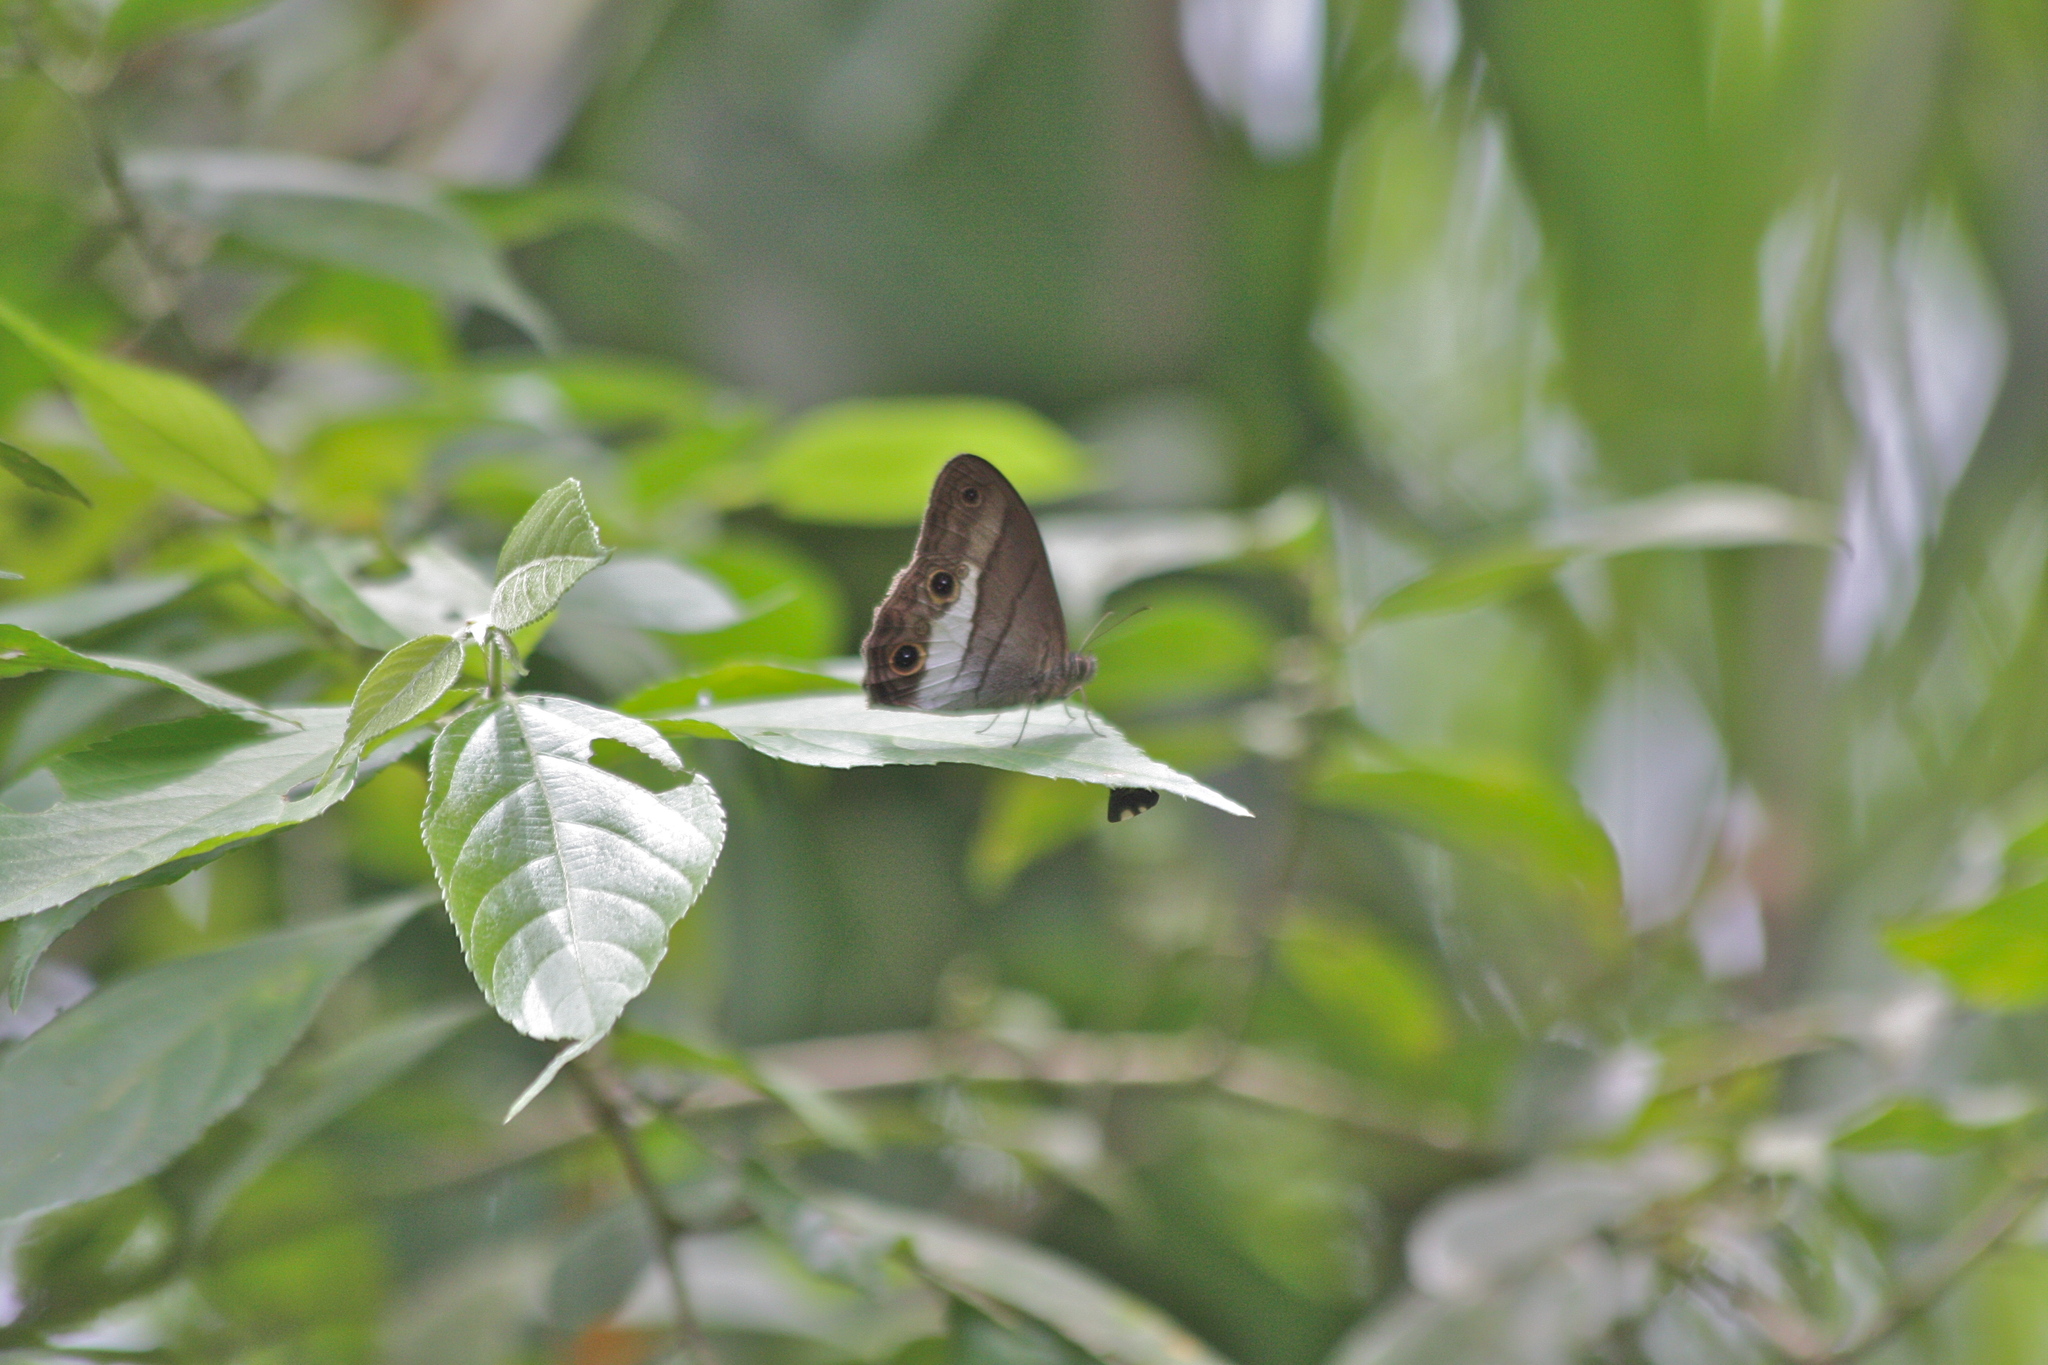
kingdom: Animalia
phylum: Arthropoda
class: Insecta
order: Lepidoptera
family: Nymphalidae
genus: Colombeia
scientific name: Colombeia
